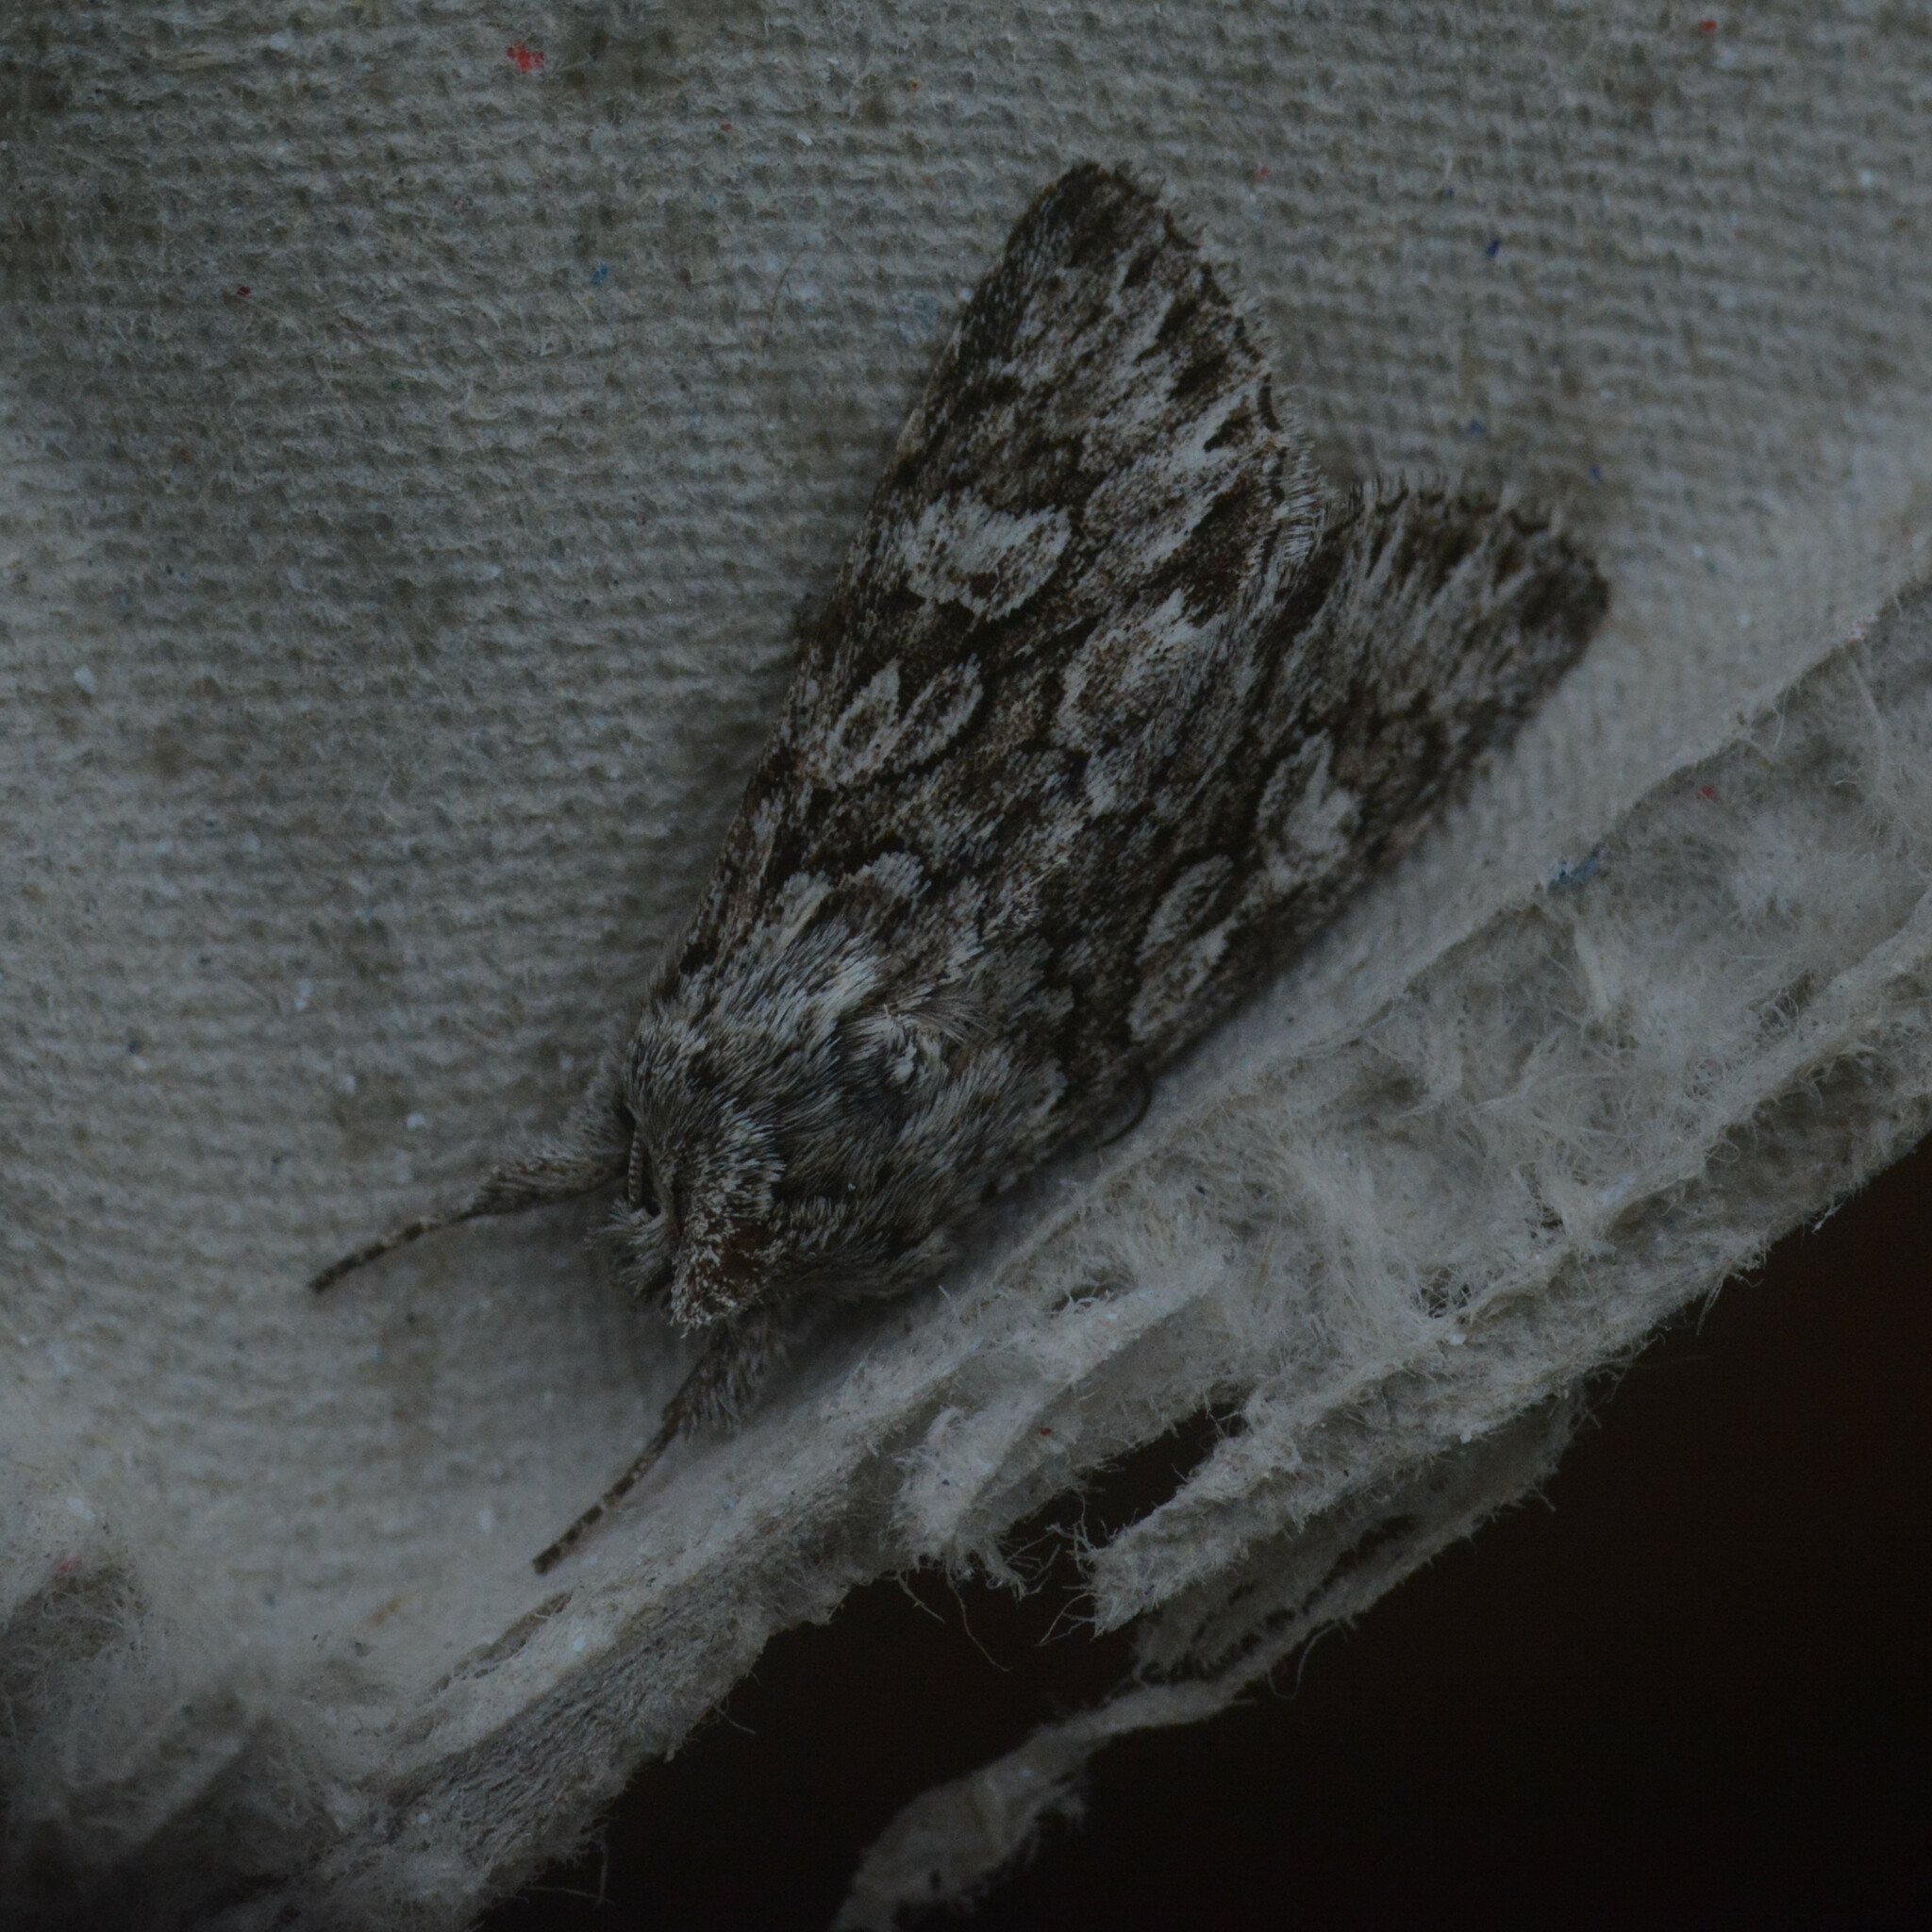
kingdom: Animalia
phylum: Arthropoda
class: Insecta
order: Lepidoptera
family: Noctuidae
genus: Xylocampa
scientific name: Xylocampa areola
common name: Early grey
